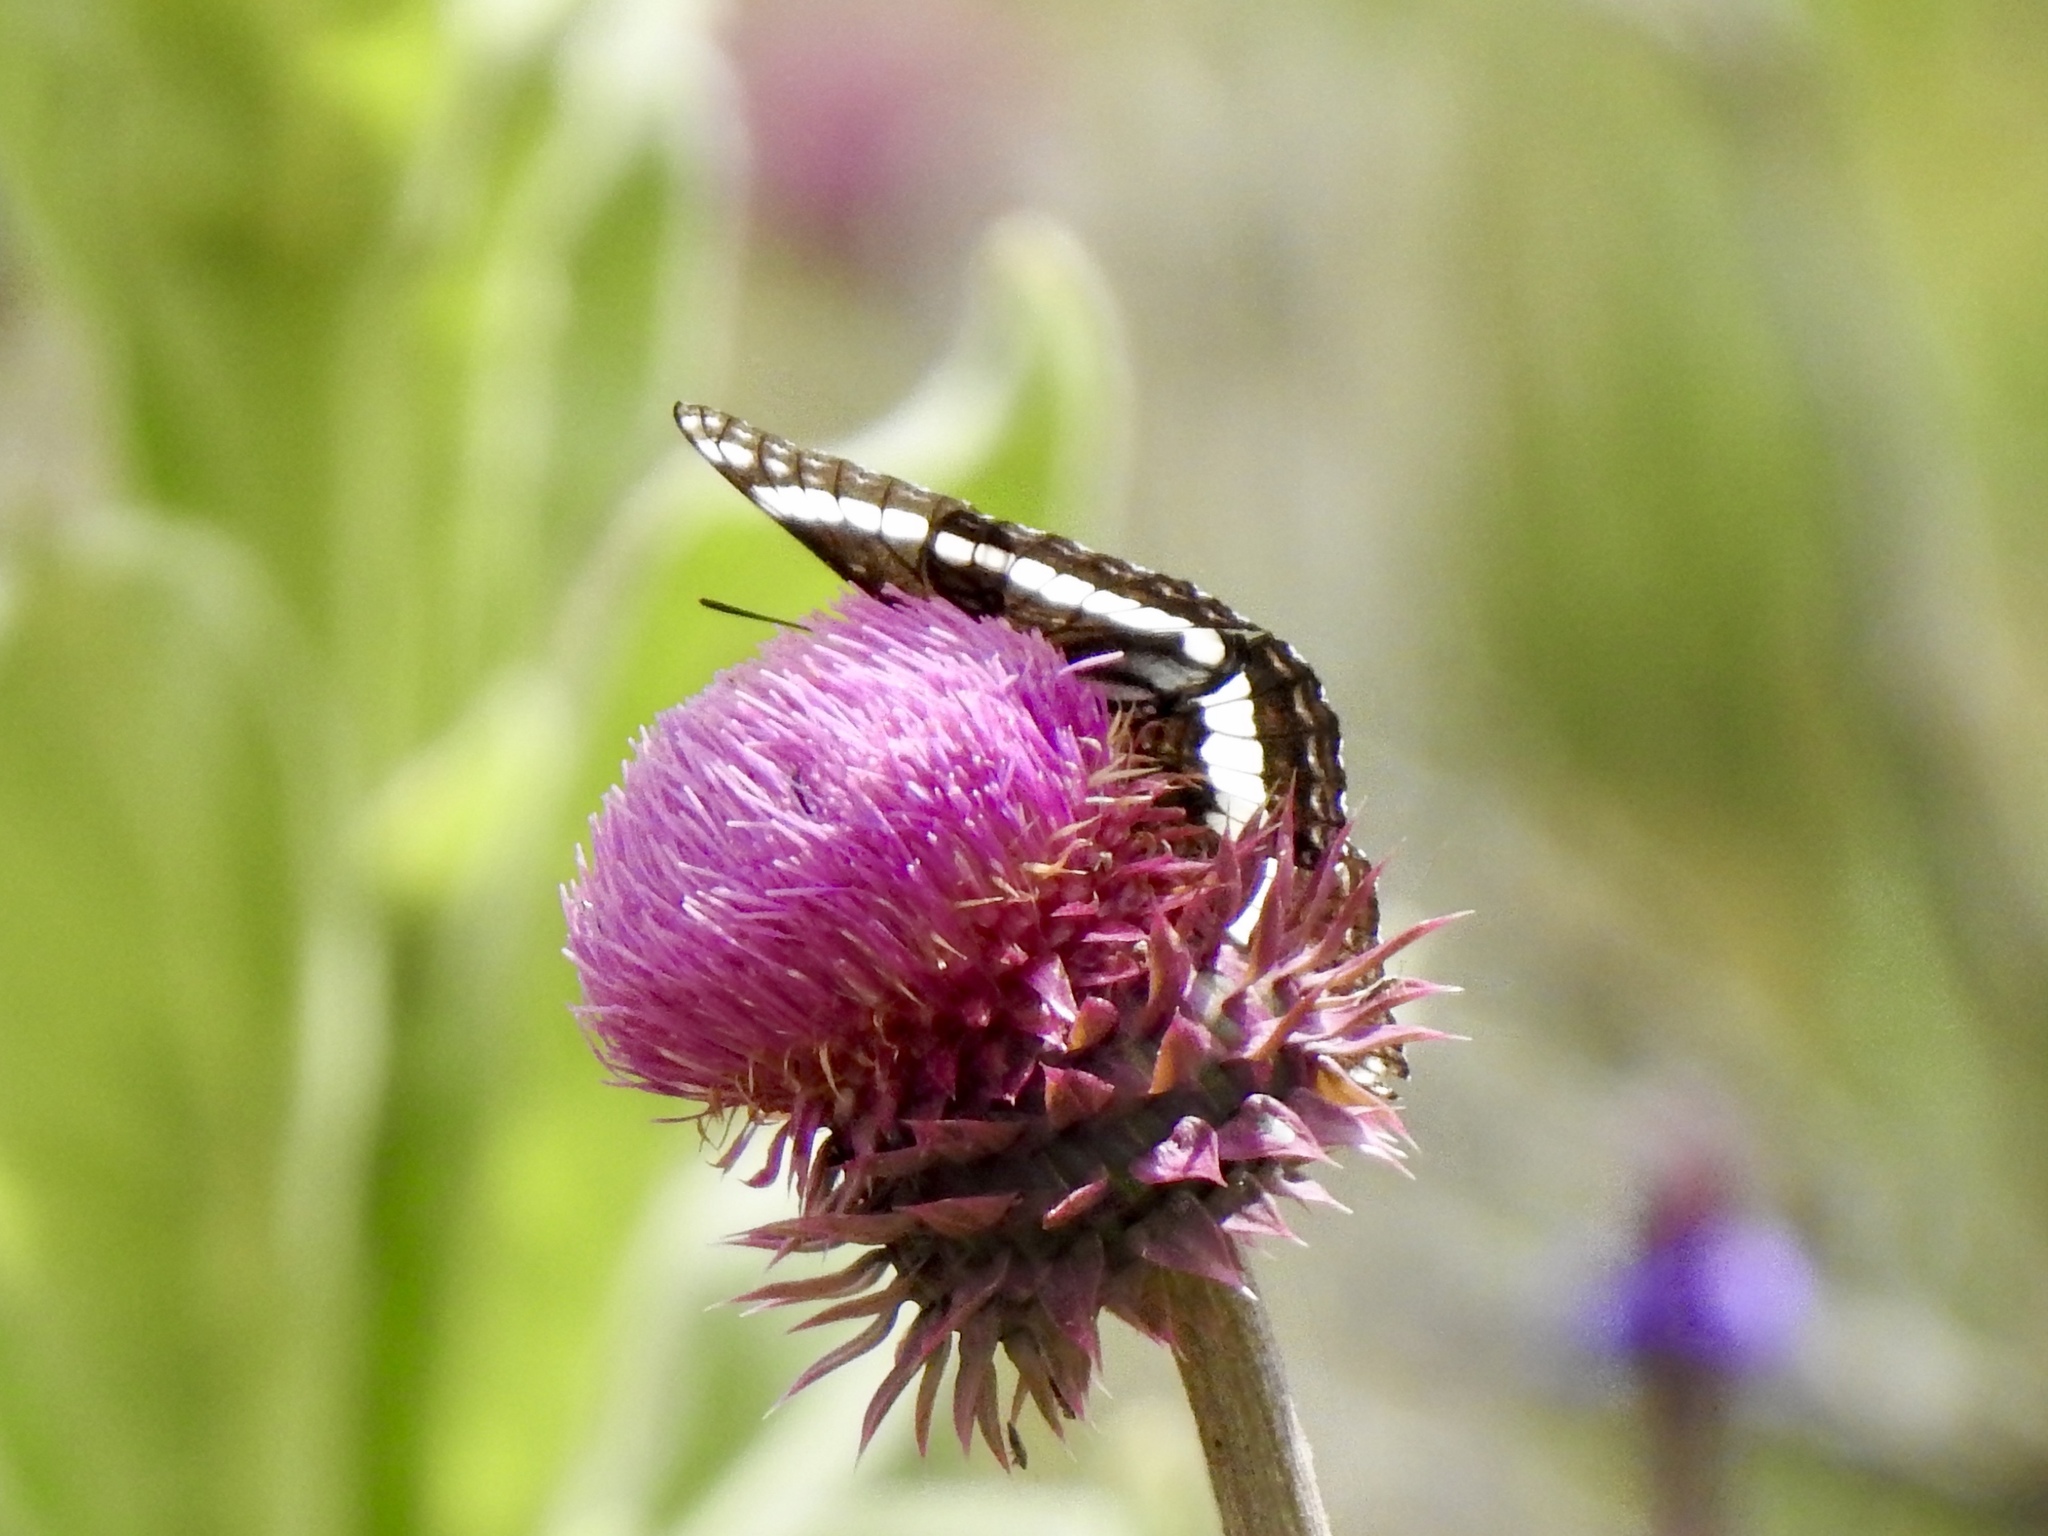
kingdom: Animalia
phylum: Arthropoda
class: Insecta
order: Lepidoptera
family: Nymphalidae
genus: Limenitis
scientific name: Limenitis weidemeyerii
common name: Weidemeyer's admiral
